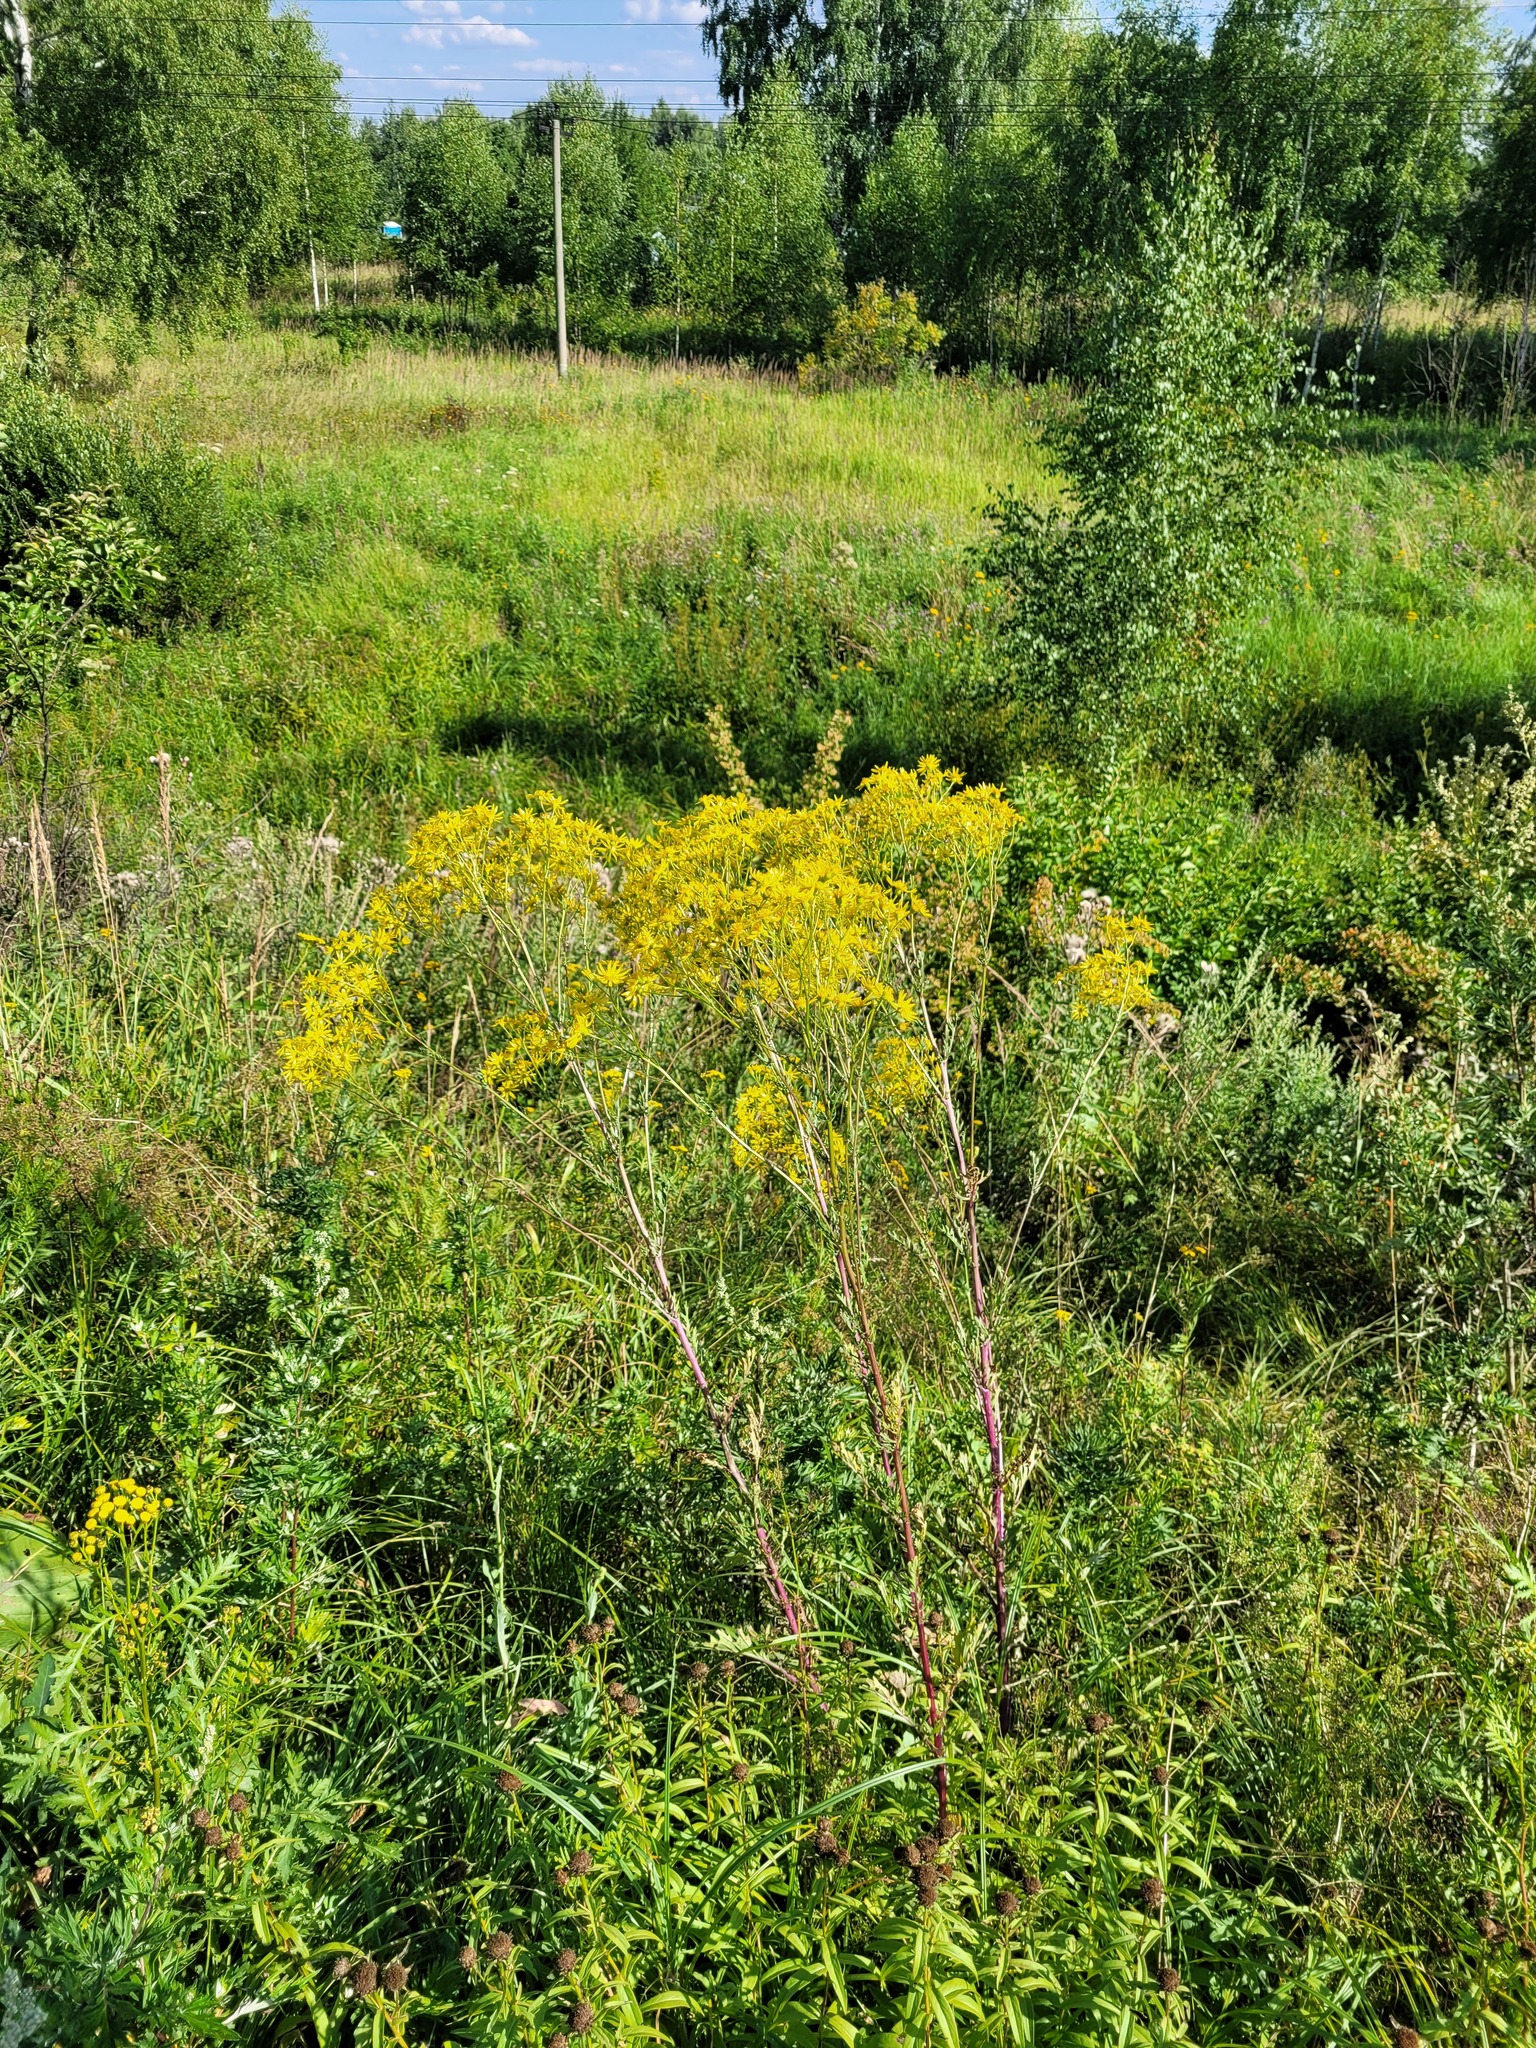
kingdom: Plantae
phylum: Tracheophyta
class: Magnoliopsida
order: Asterales
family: Asteraceae
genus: Jacobaea
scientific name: Jacobaea vulgaris
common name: Stinking willie
